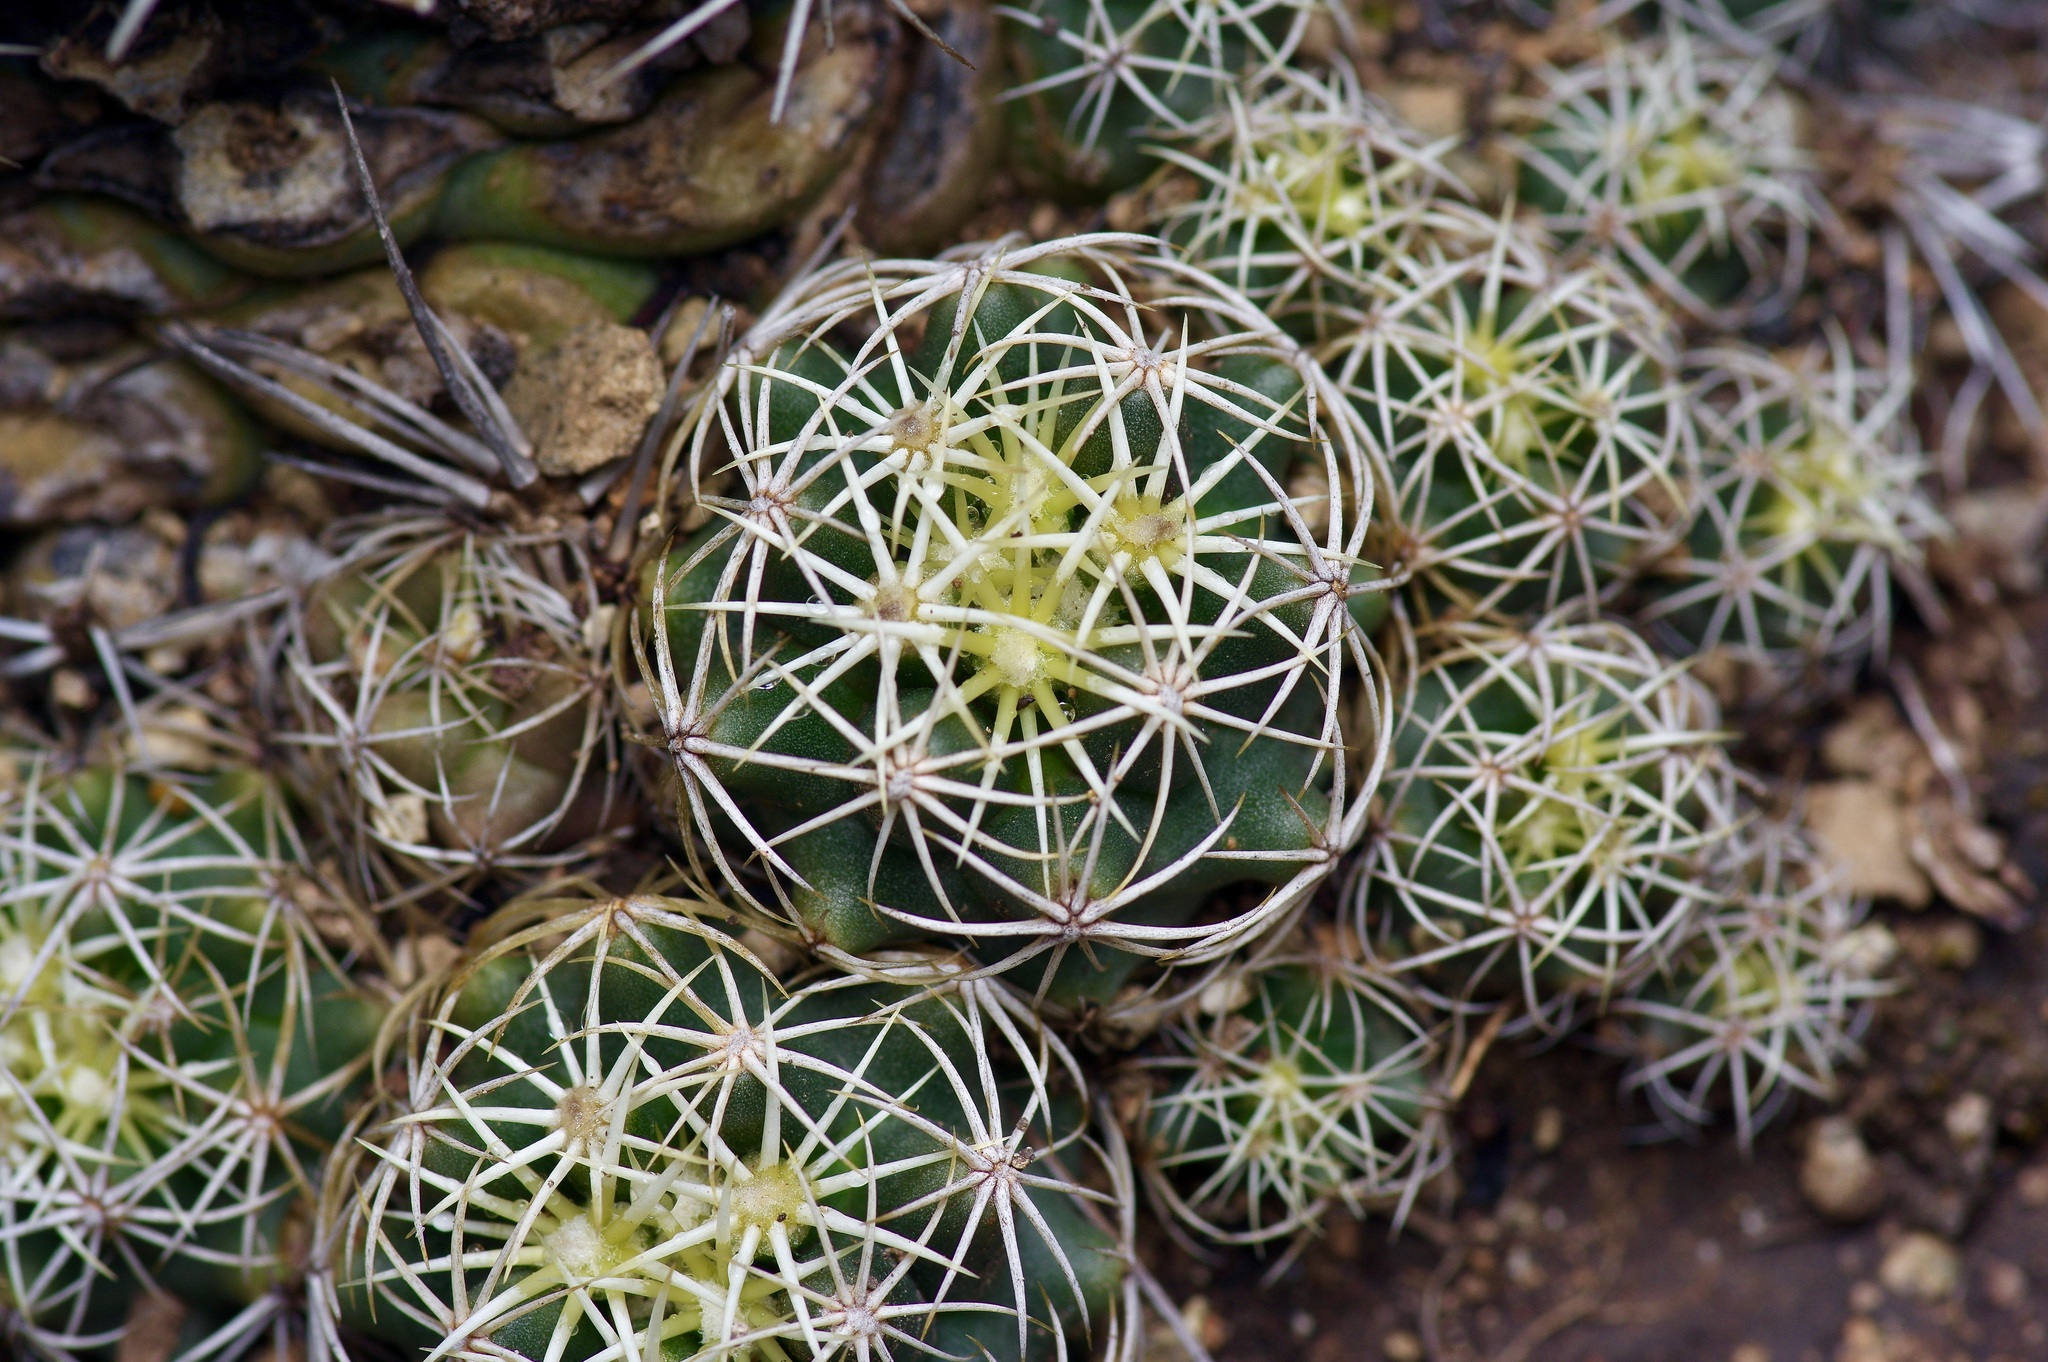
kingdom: Plantae
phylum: Tracheophyta
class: Magnoliopsida
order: Caryophyllales
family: Cactaceae
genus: Coryphantha
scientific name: Coryphantha sulcata
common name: Finger cactus
